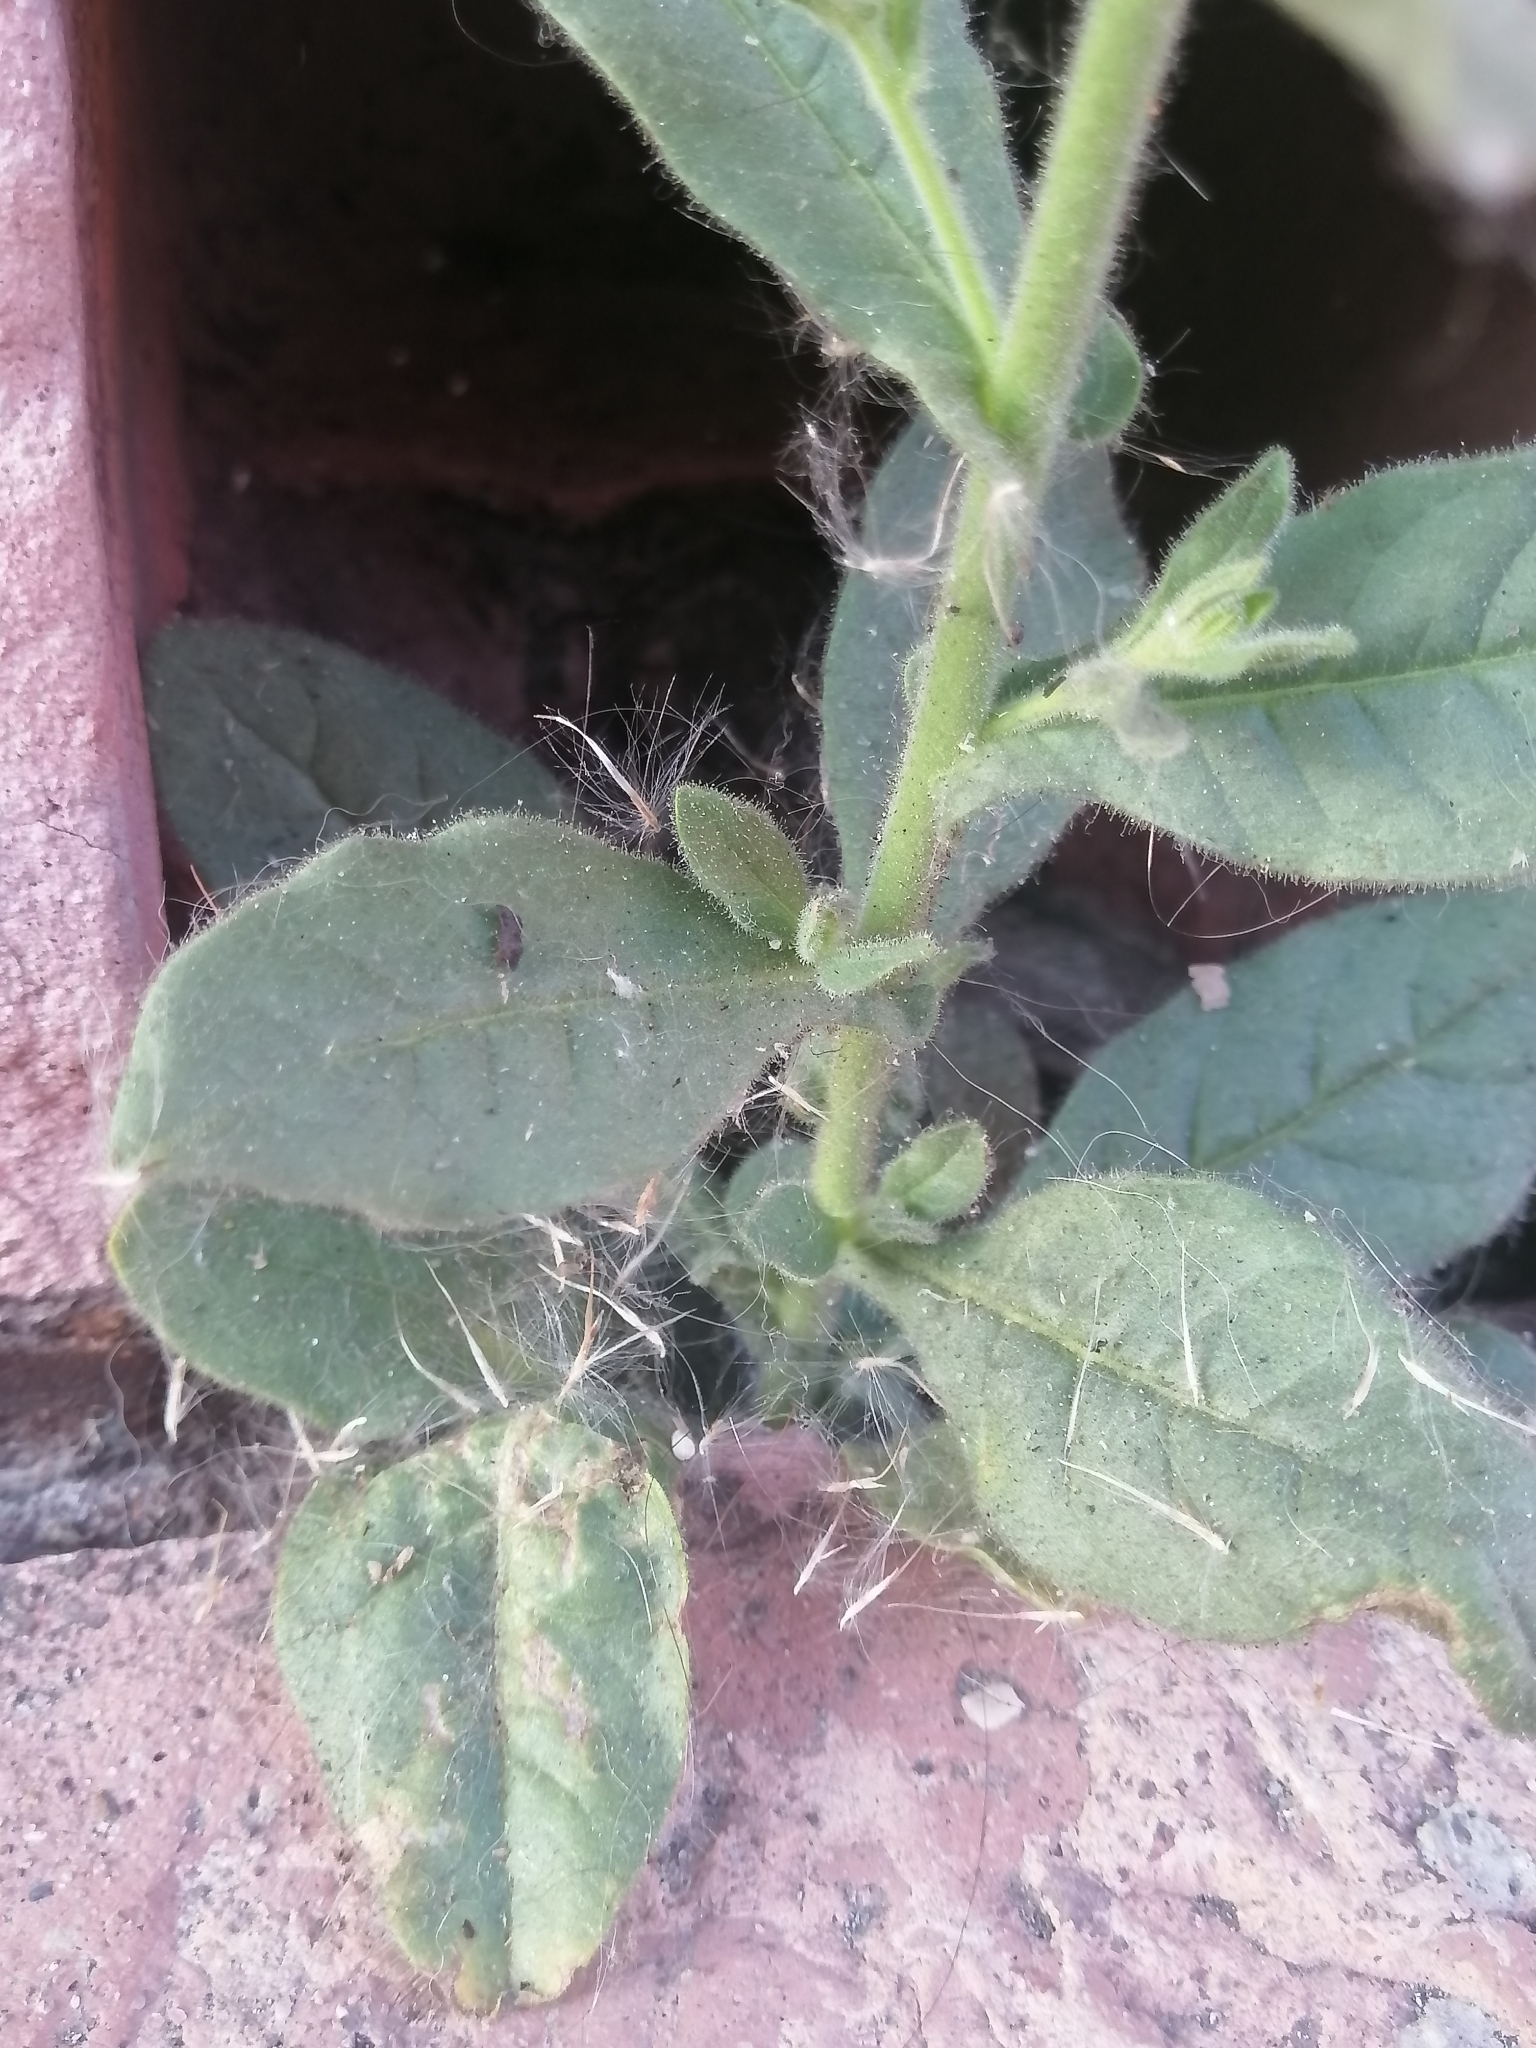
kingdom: Plantae
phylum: Tracheophyta
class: Magnoliopsida
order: Solanales
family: Solanaceae
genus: Nicotiana
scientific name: Nicotiana obtusifolia
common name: Desert tobacco
